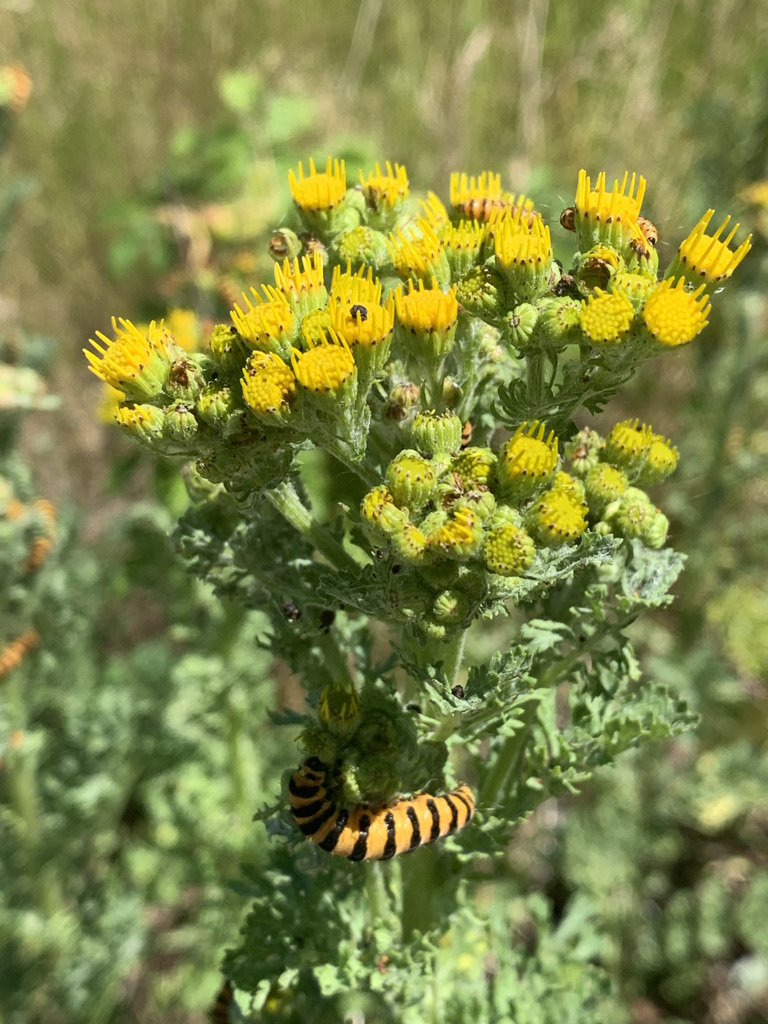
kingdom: Plantae
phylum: Tracheophyta
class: Magnoliopsida
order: Asterales
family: Asteraceae
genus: Jacobaea
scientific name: Jacobaea vulgaris
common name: Stinking willie
